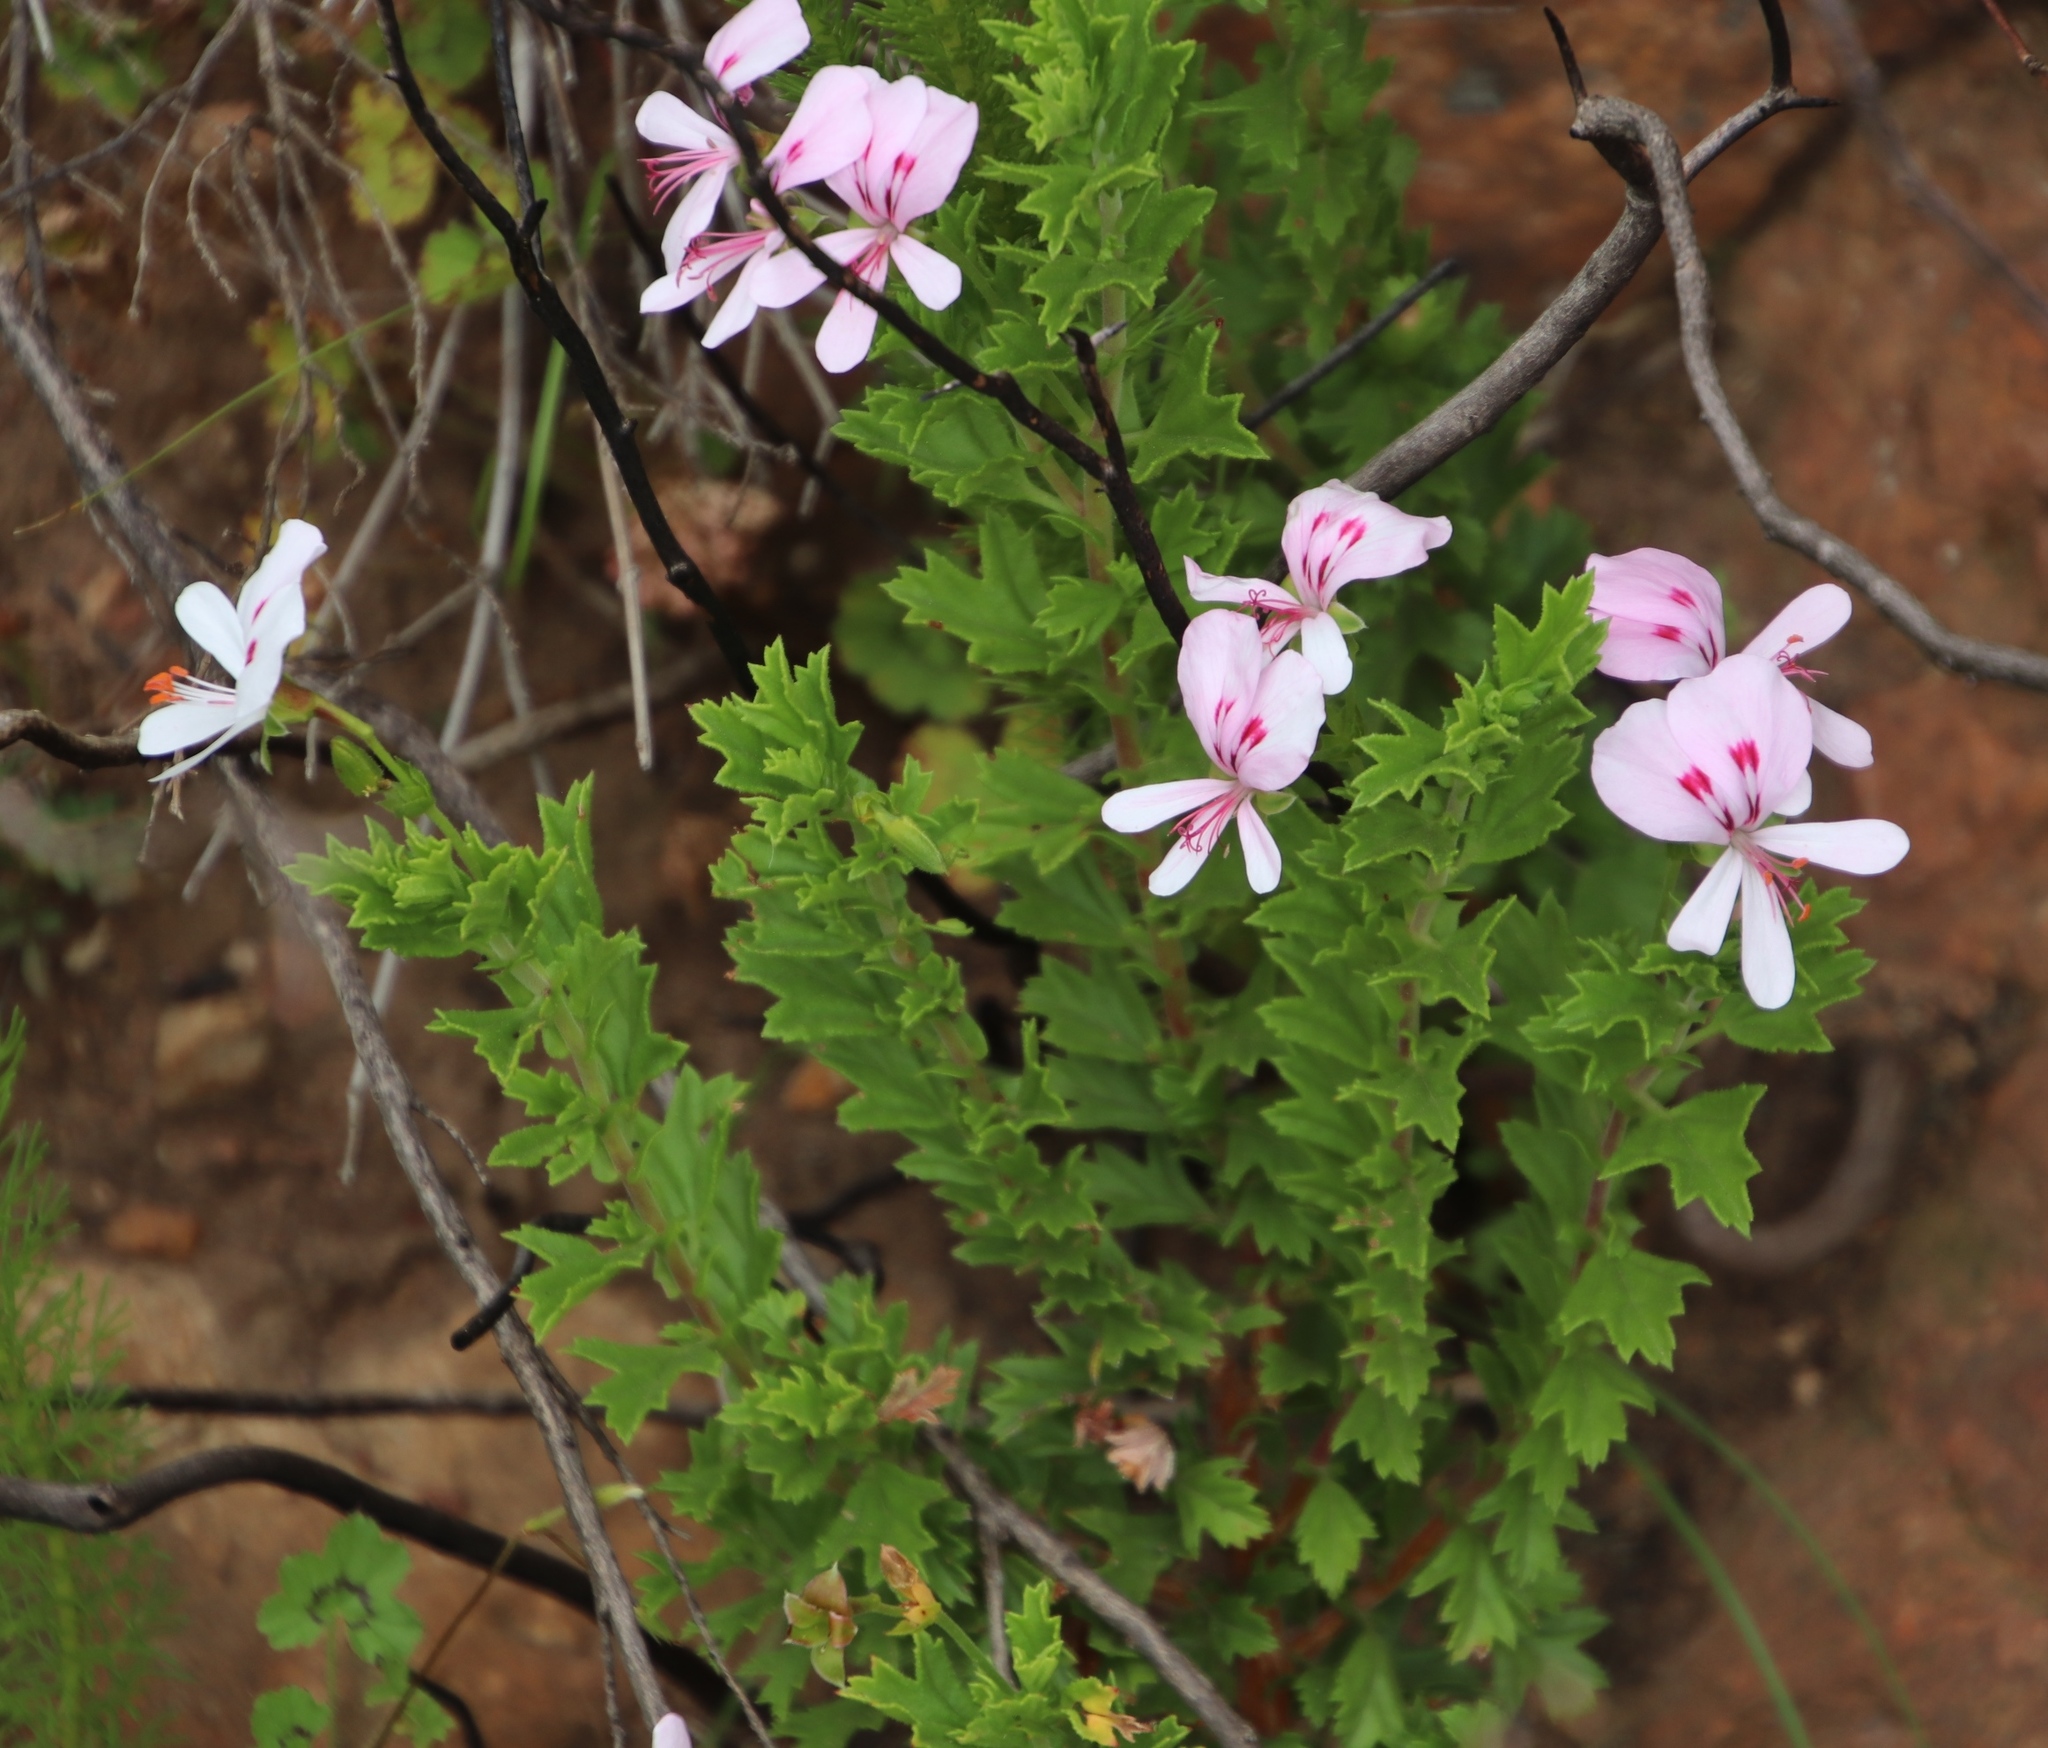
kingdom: Plantae
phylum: Tracheophyta
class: Magnoliopsida
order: Geraniales
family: Geraniaceae
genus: Pelargonium
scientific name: Pelargonium hermaniifolium
